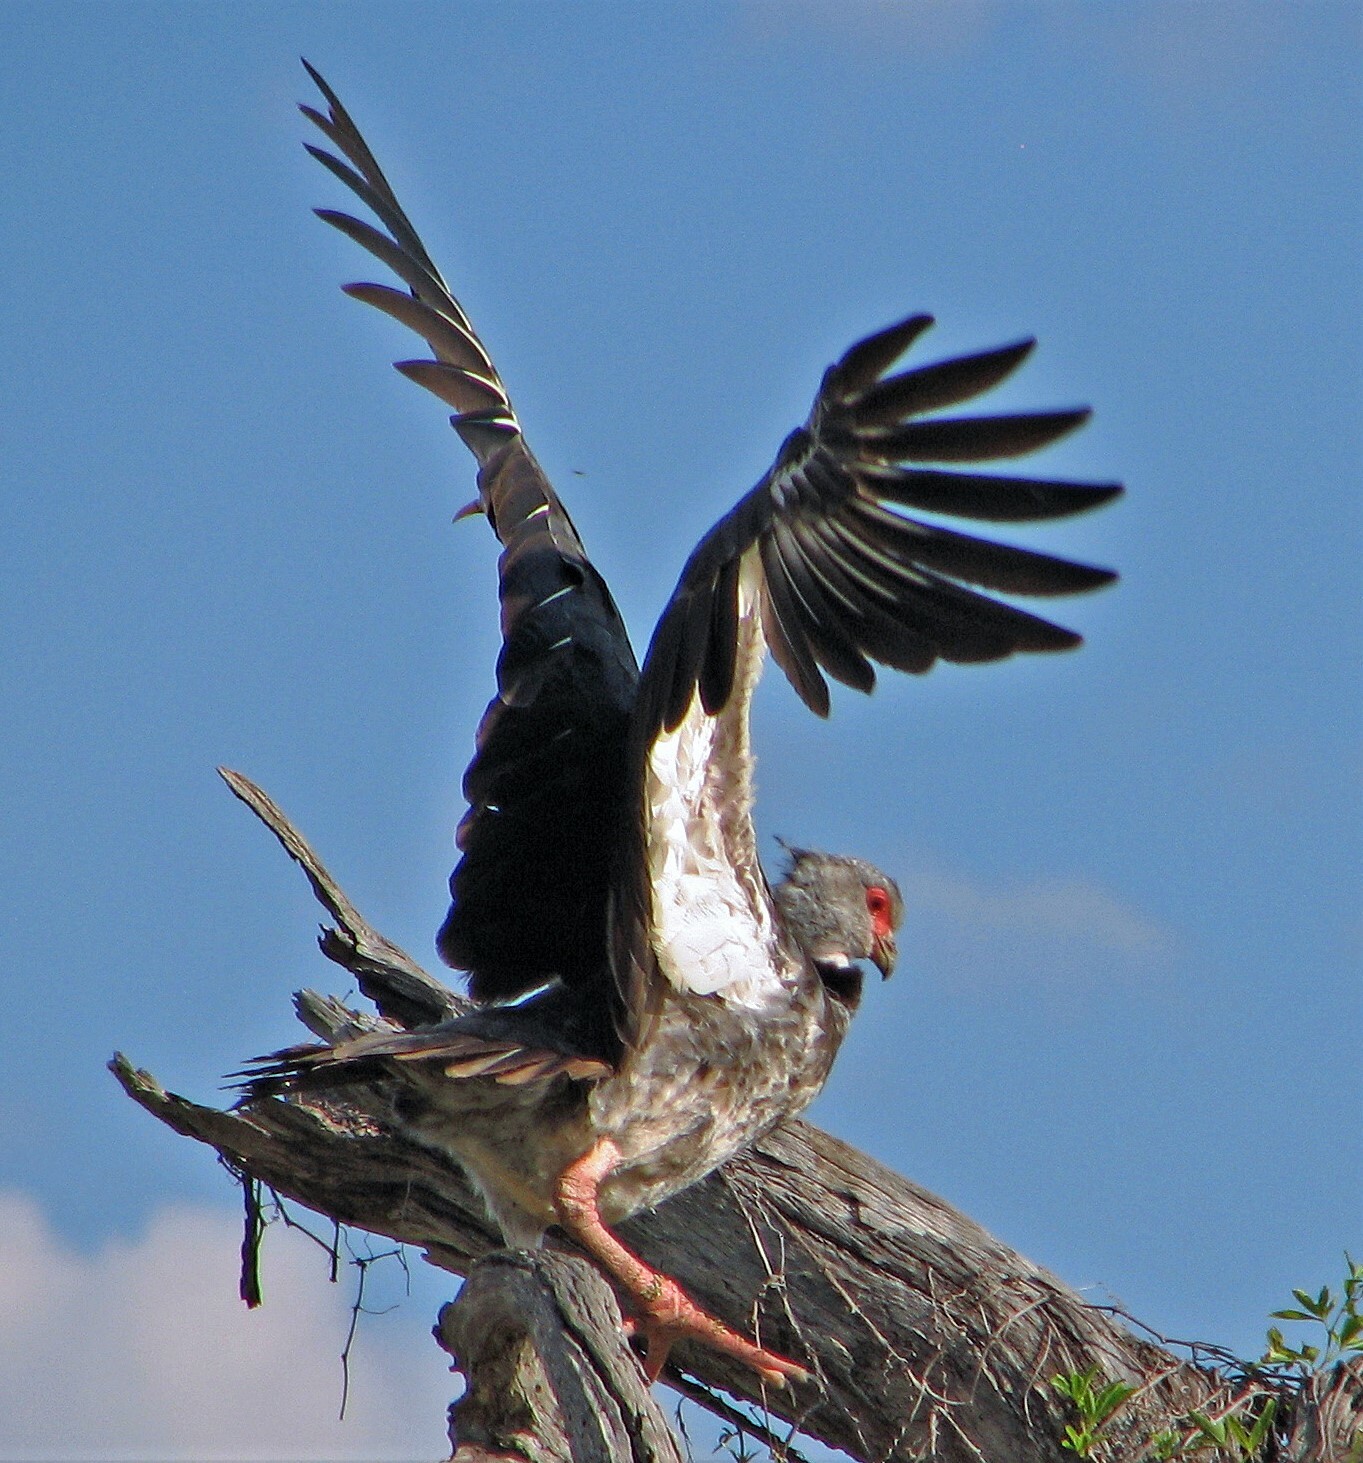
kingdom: Animalia
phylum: Chordata
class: Aves
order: Anseriformes
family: Anhimidae
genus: Chauna
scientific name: Chauna torquata
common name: Southern screamer
